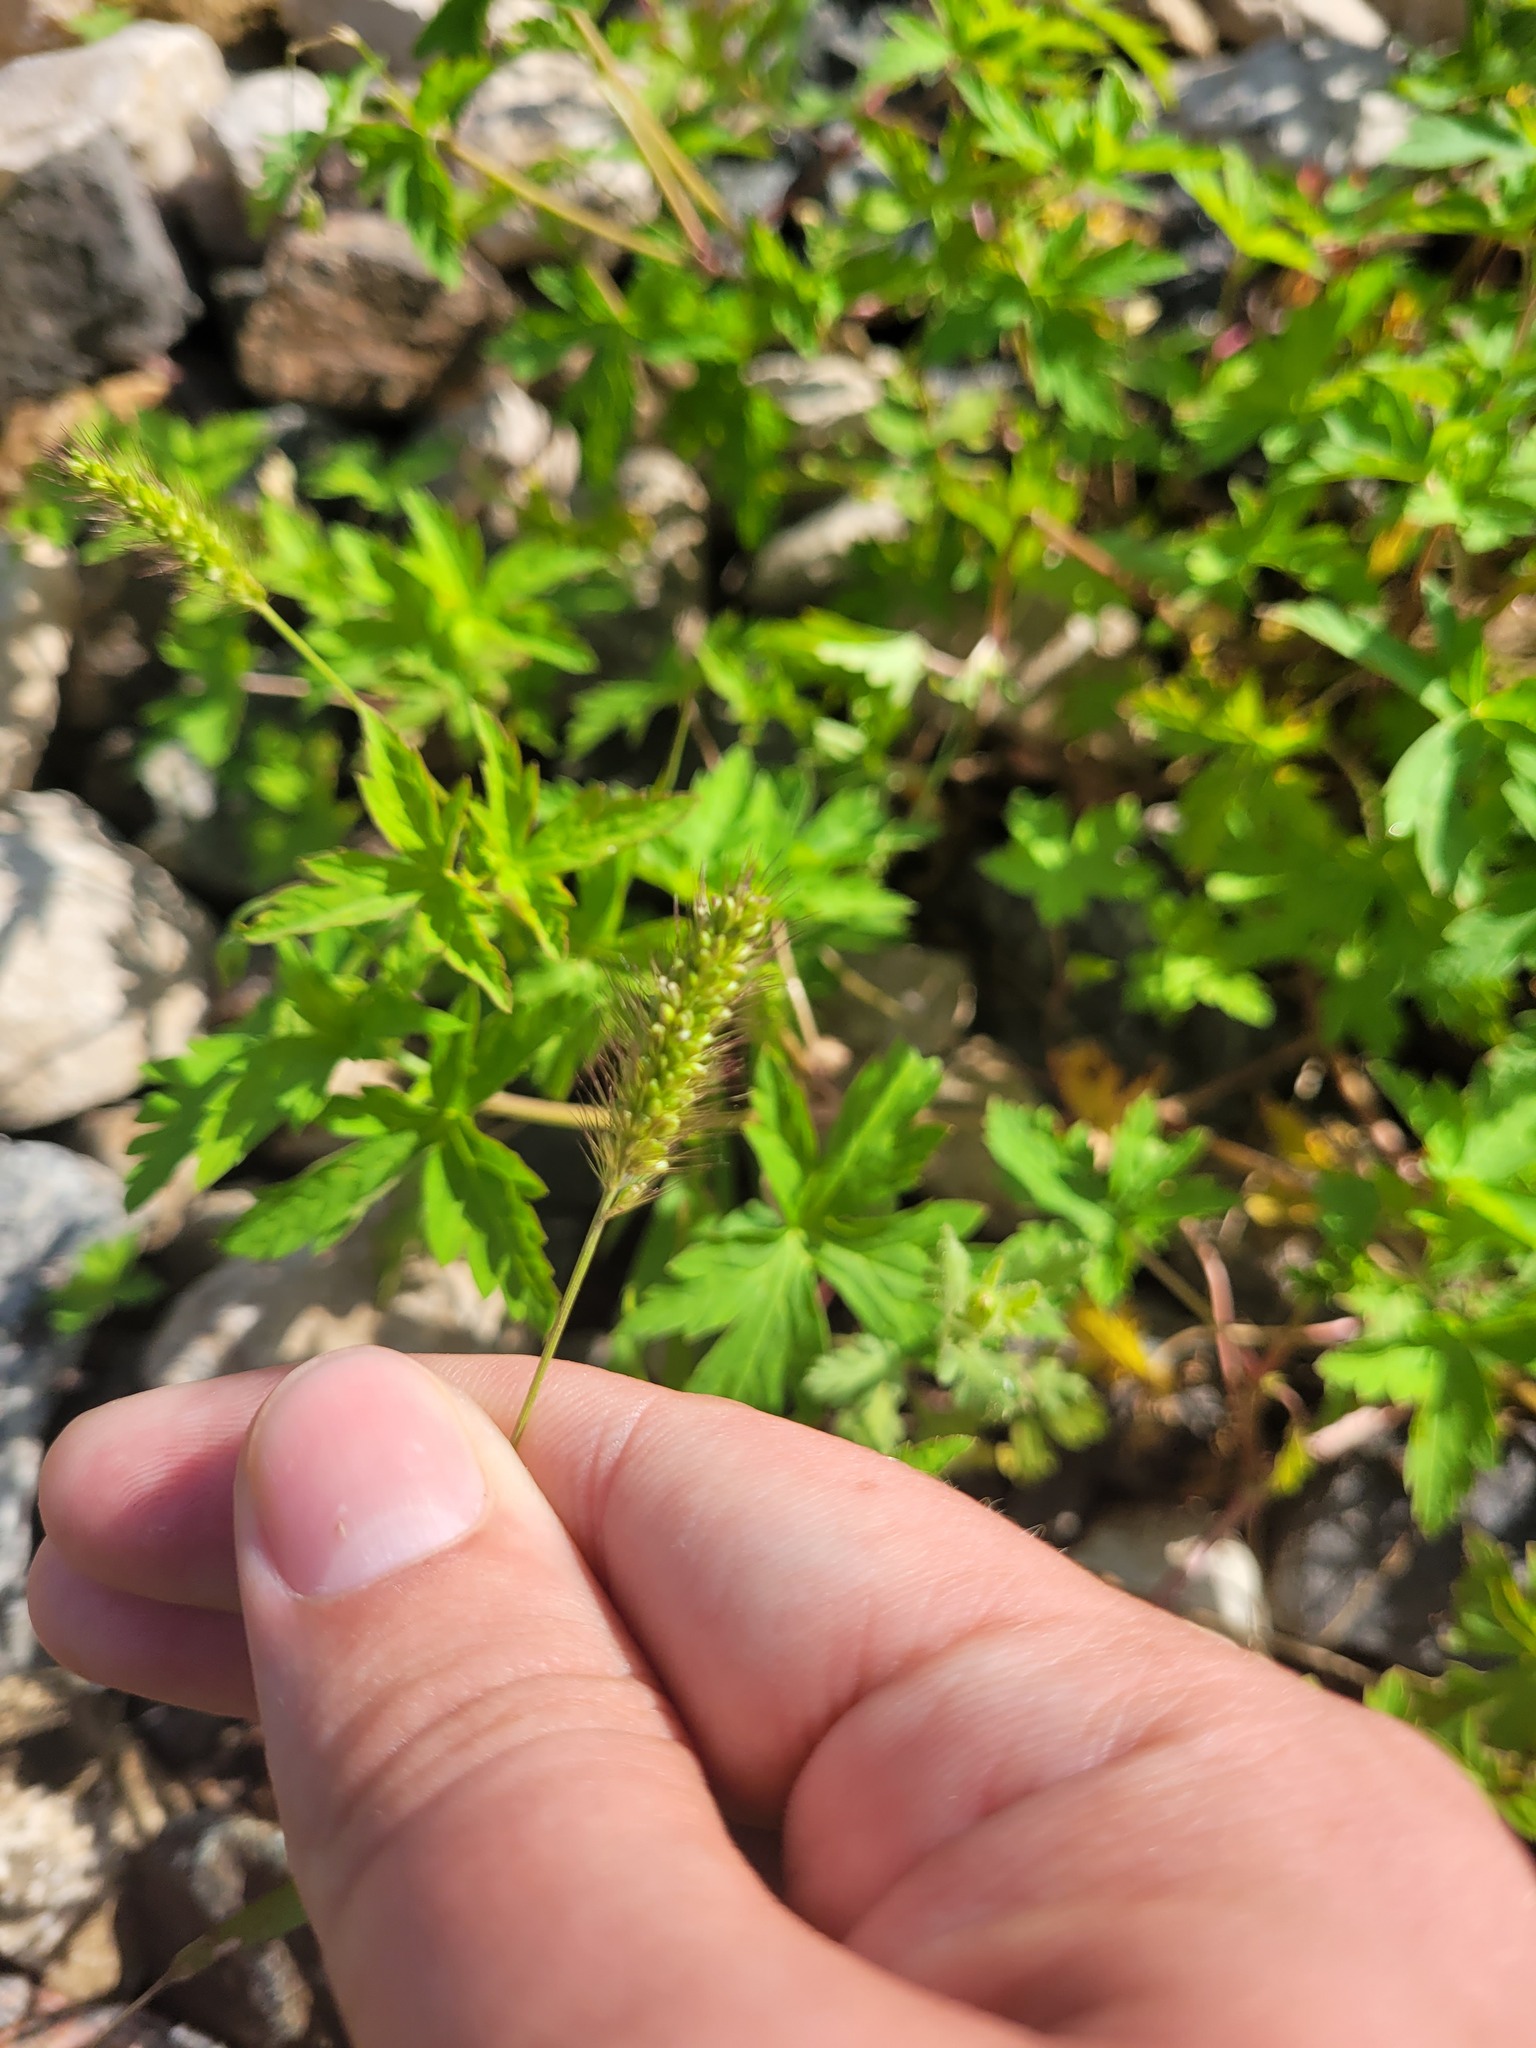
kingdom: Plantae
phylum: Tracheophyta
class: Liliopsida
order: Poales
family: Poaceae
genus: Setaria
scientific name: Setaria viridis
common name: Green bristlegrass
